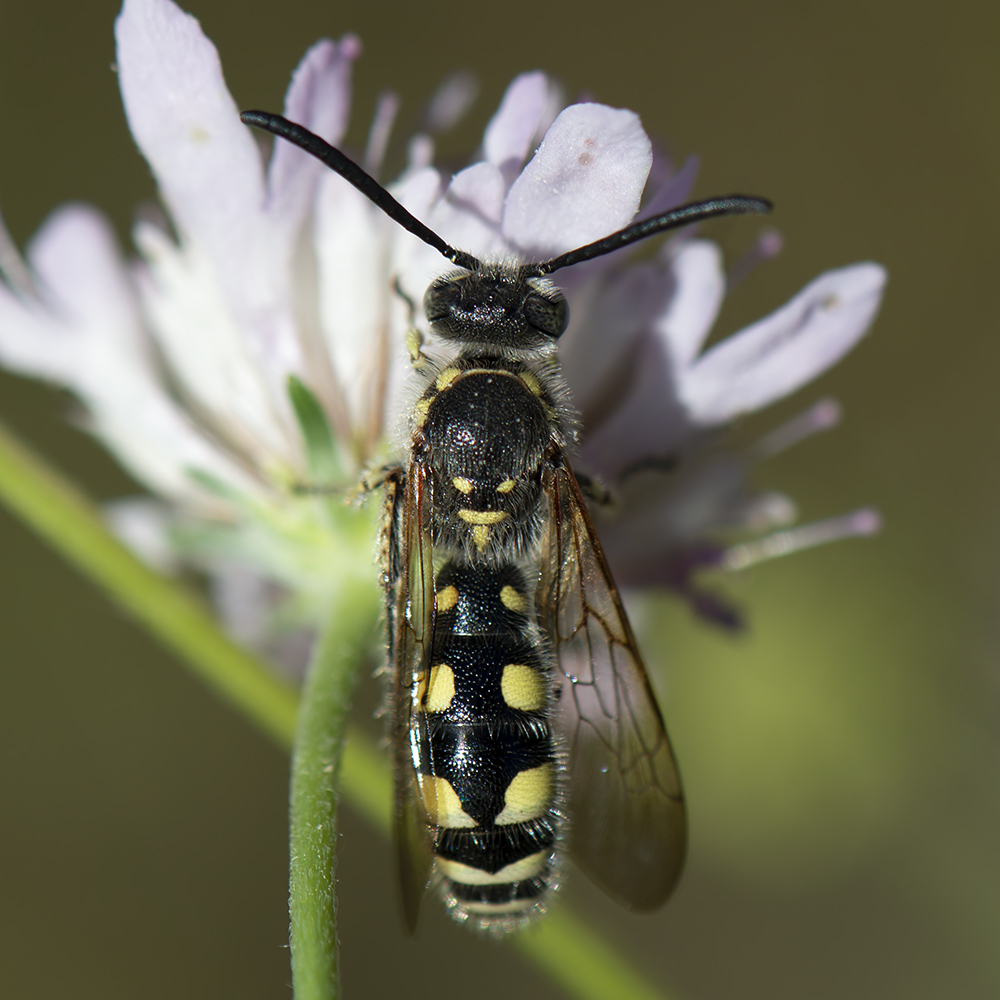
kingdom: Animalia
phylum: Arthropoda
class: Insecta
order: Hymenoptera
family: Vespidae
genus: Vespa
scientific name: Vespa sexmaculata
